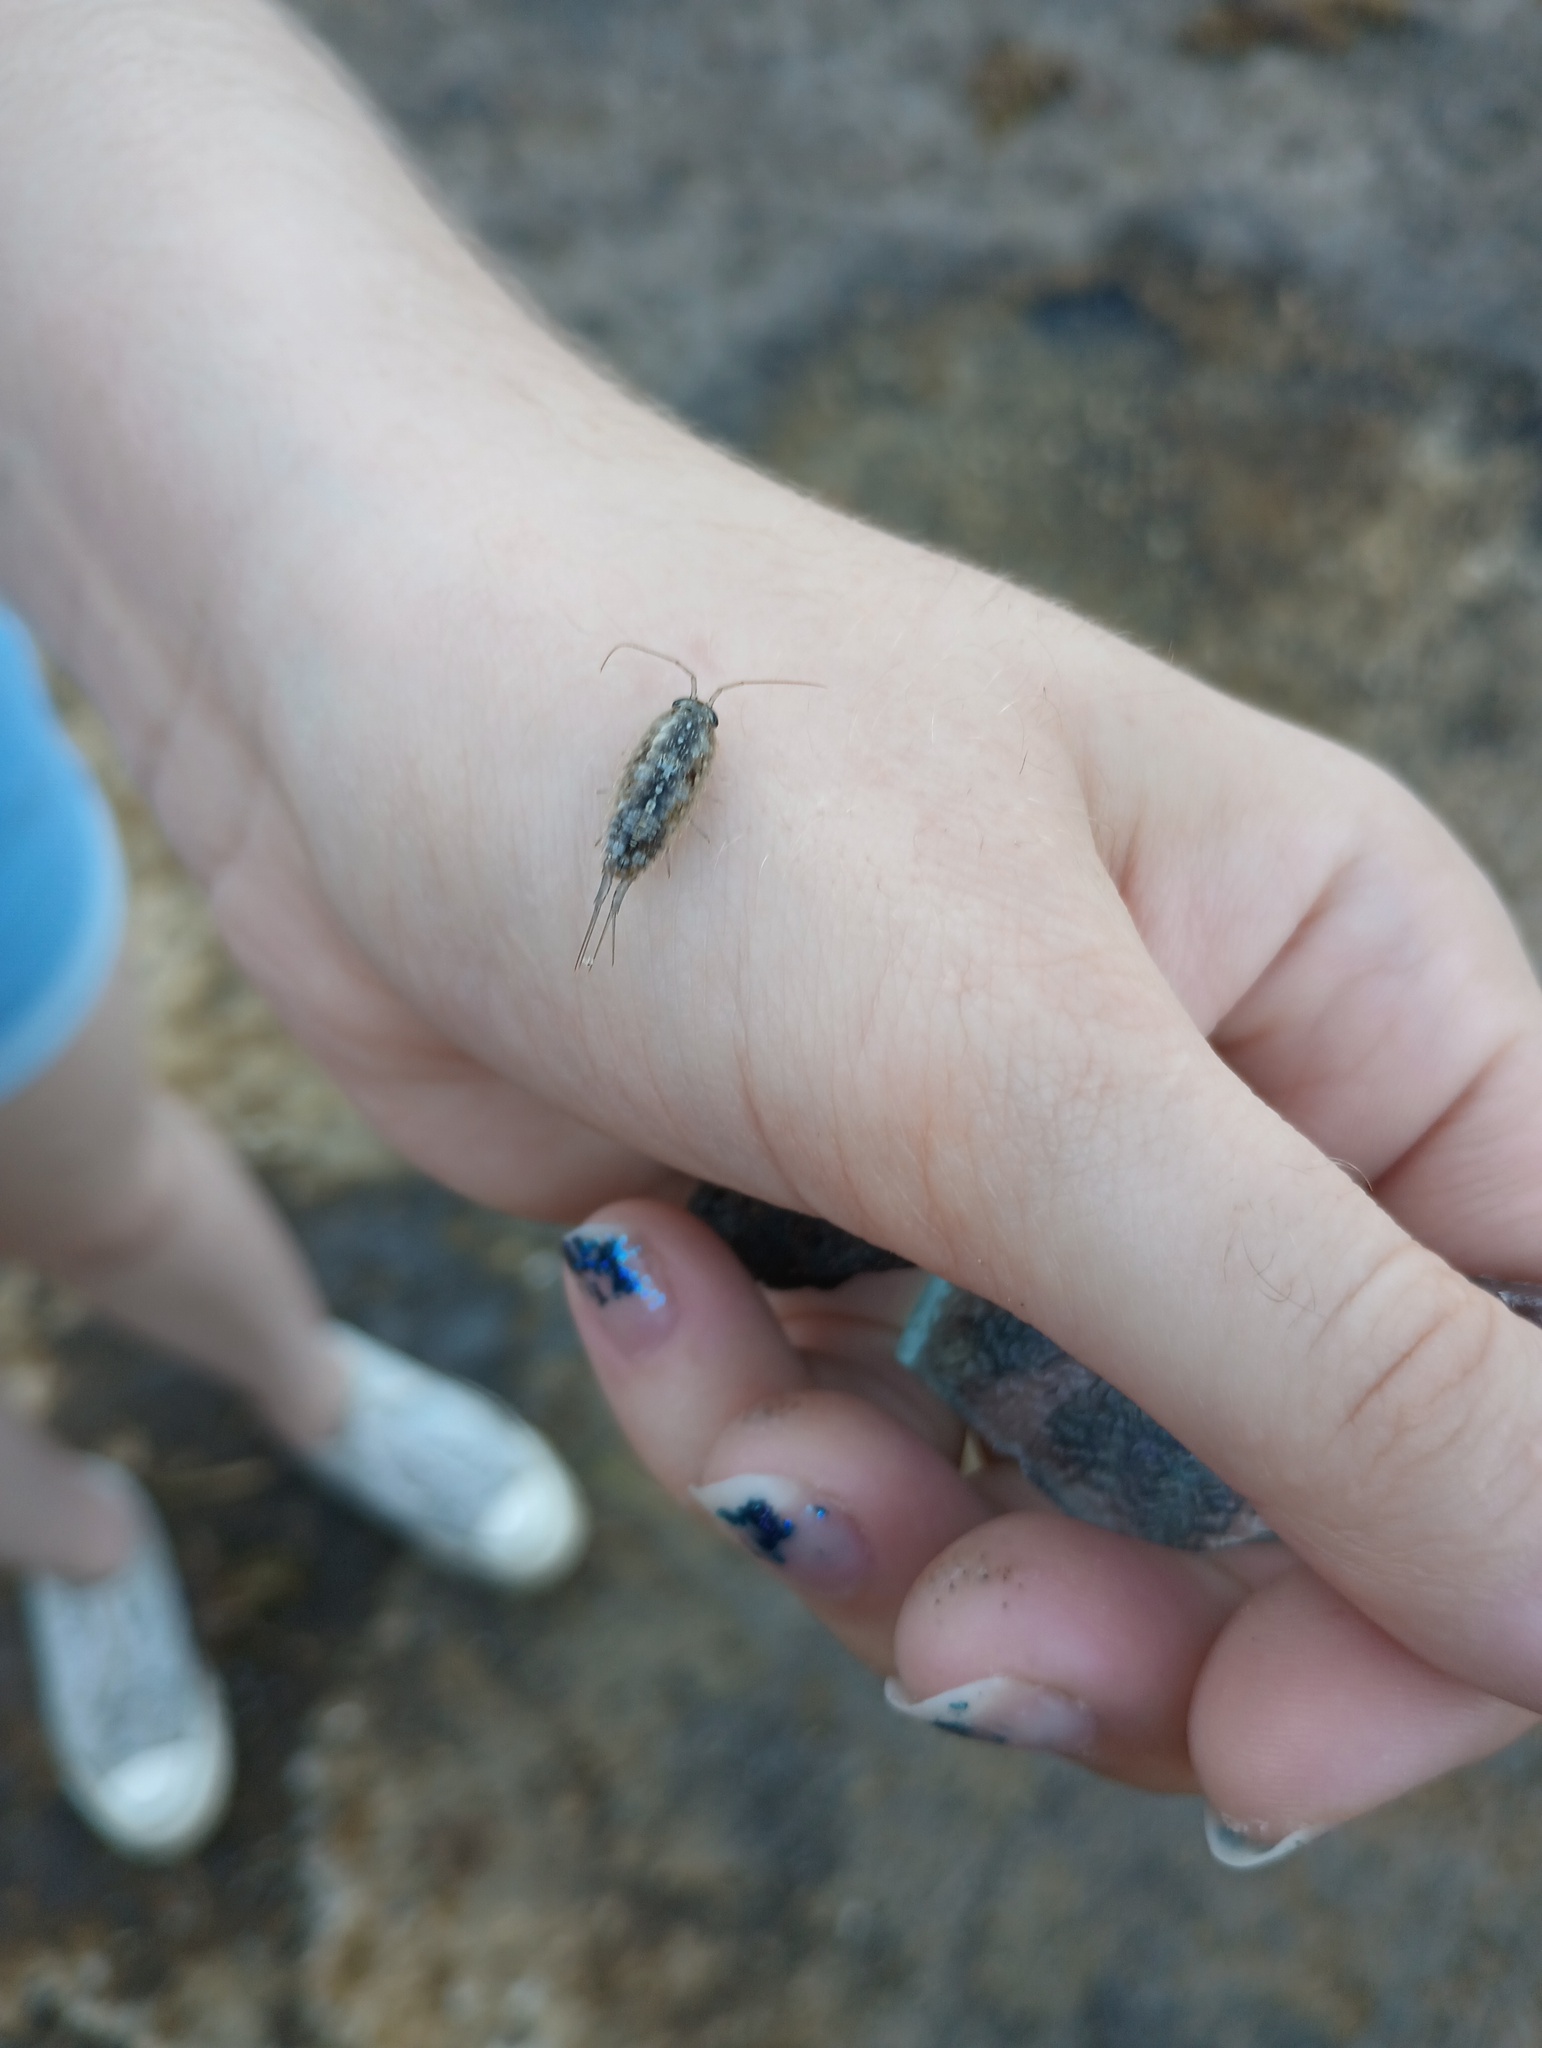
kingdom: Animalia
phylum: Arthropoda
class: Malacostraca
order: Isopoda
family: Ligiidae
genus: Ligia
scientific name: Ligia exotica
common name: Wharf roach
